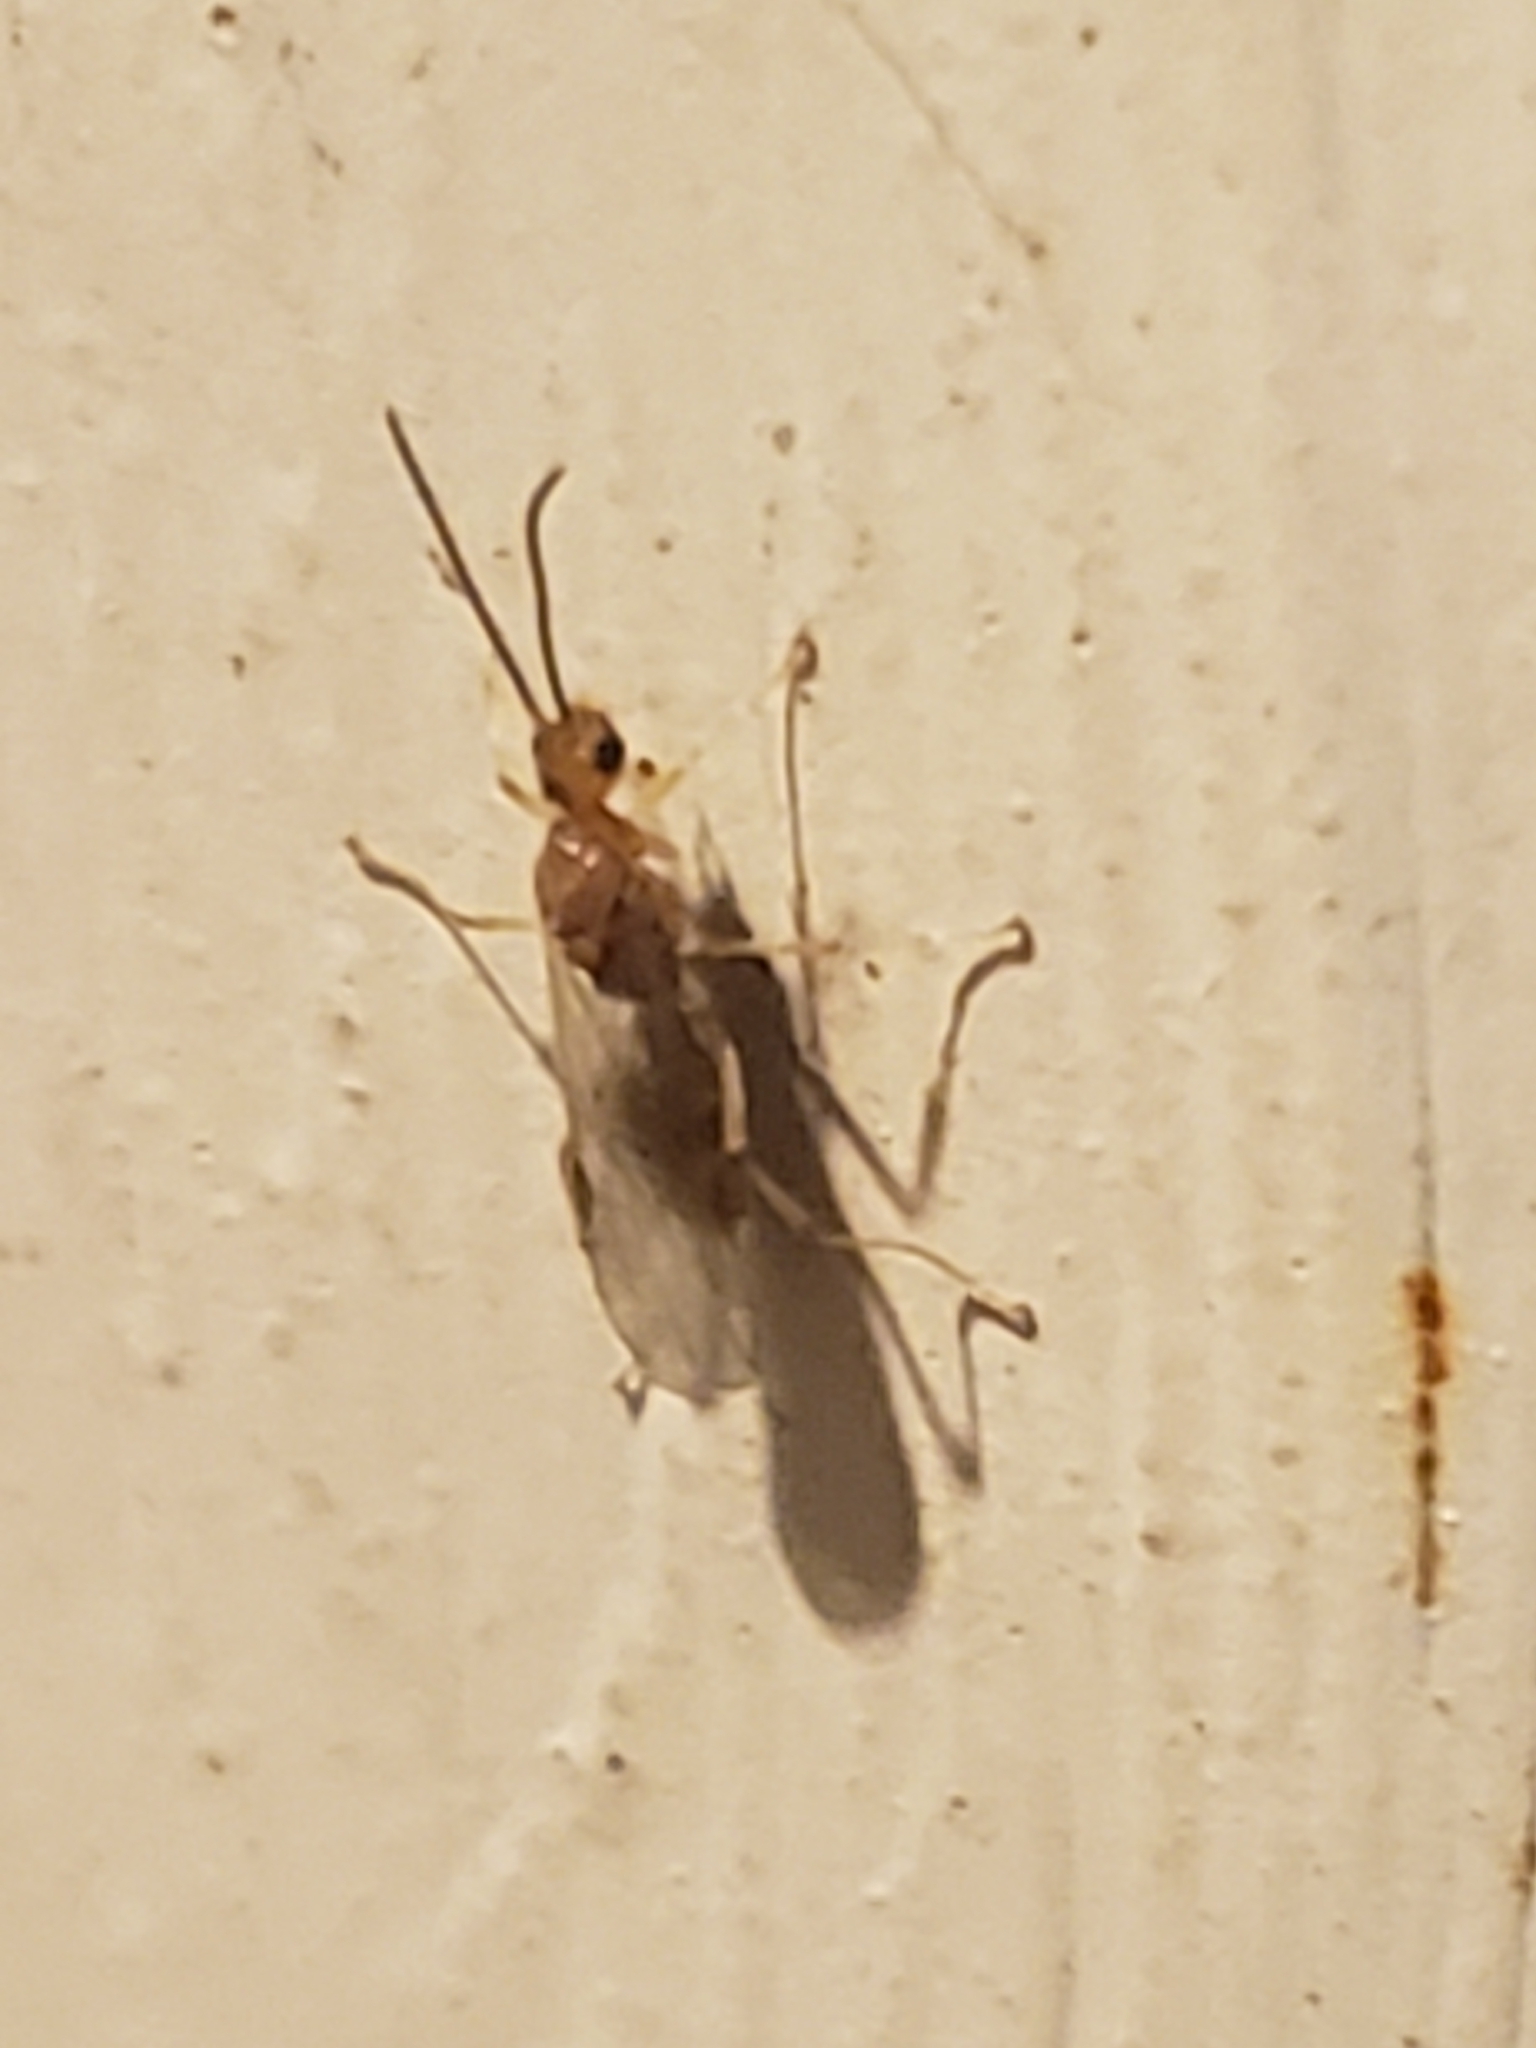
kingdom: Animalia
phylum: Arthropoda
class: Insecta
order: Hymenoptera
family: Formicidae
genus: Pachycondyla
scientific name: Pachycondyla chinensis
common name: Asian needle ant
